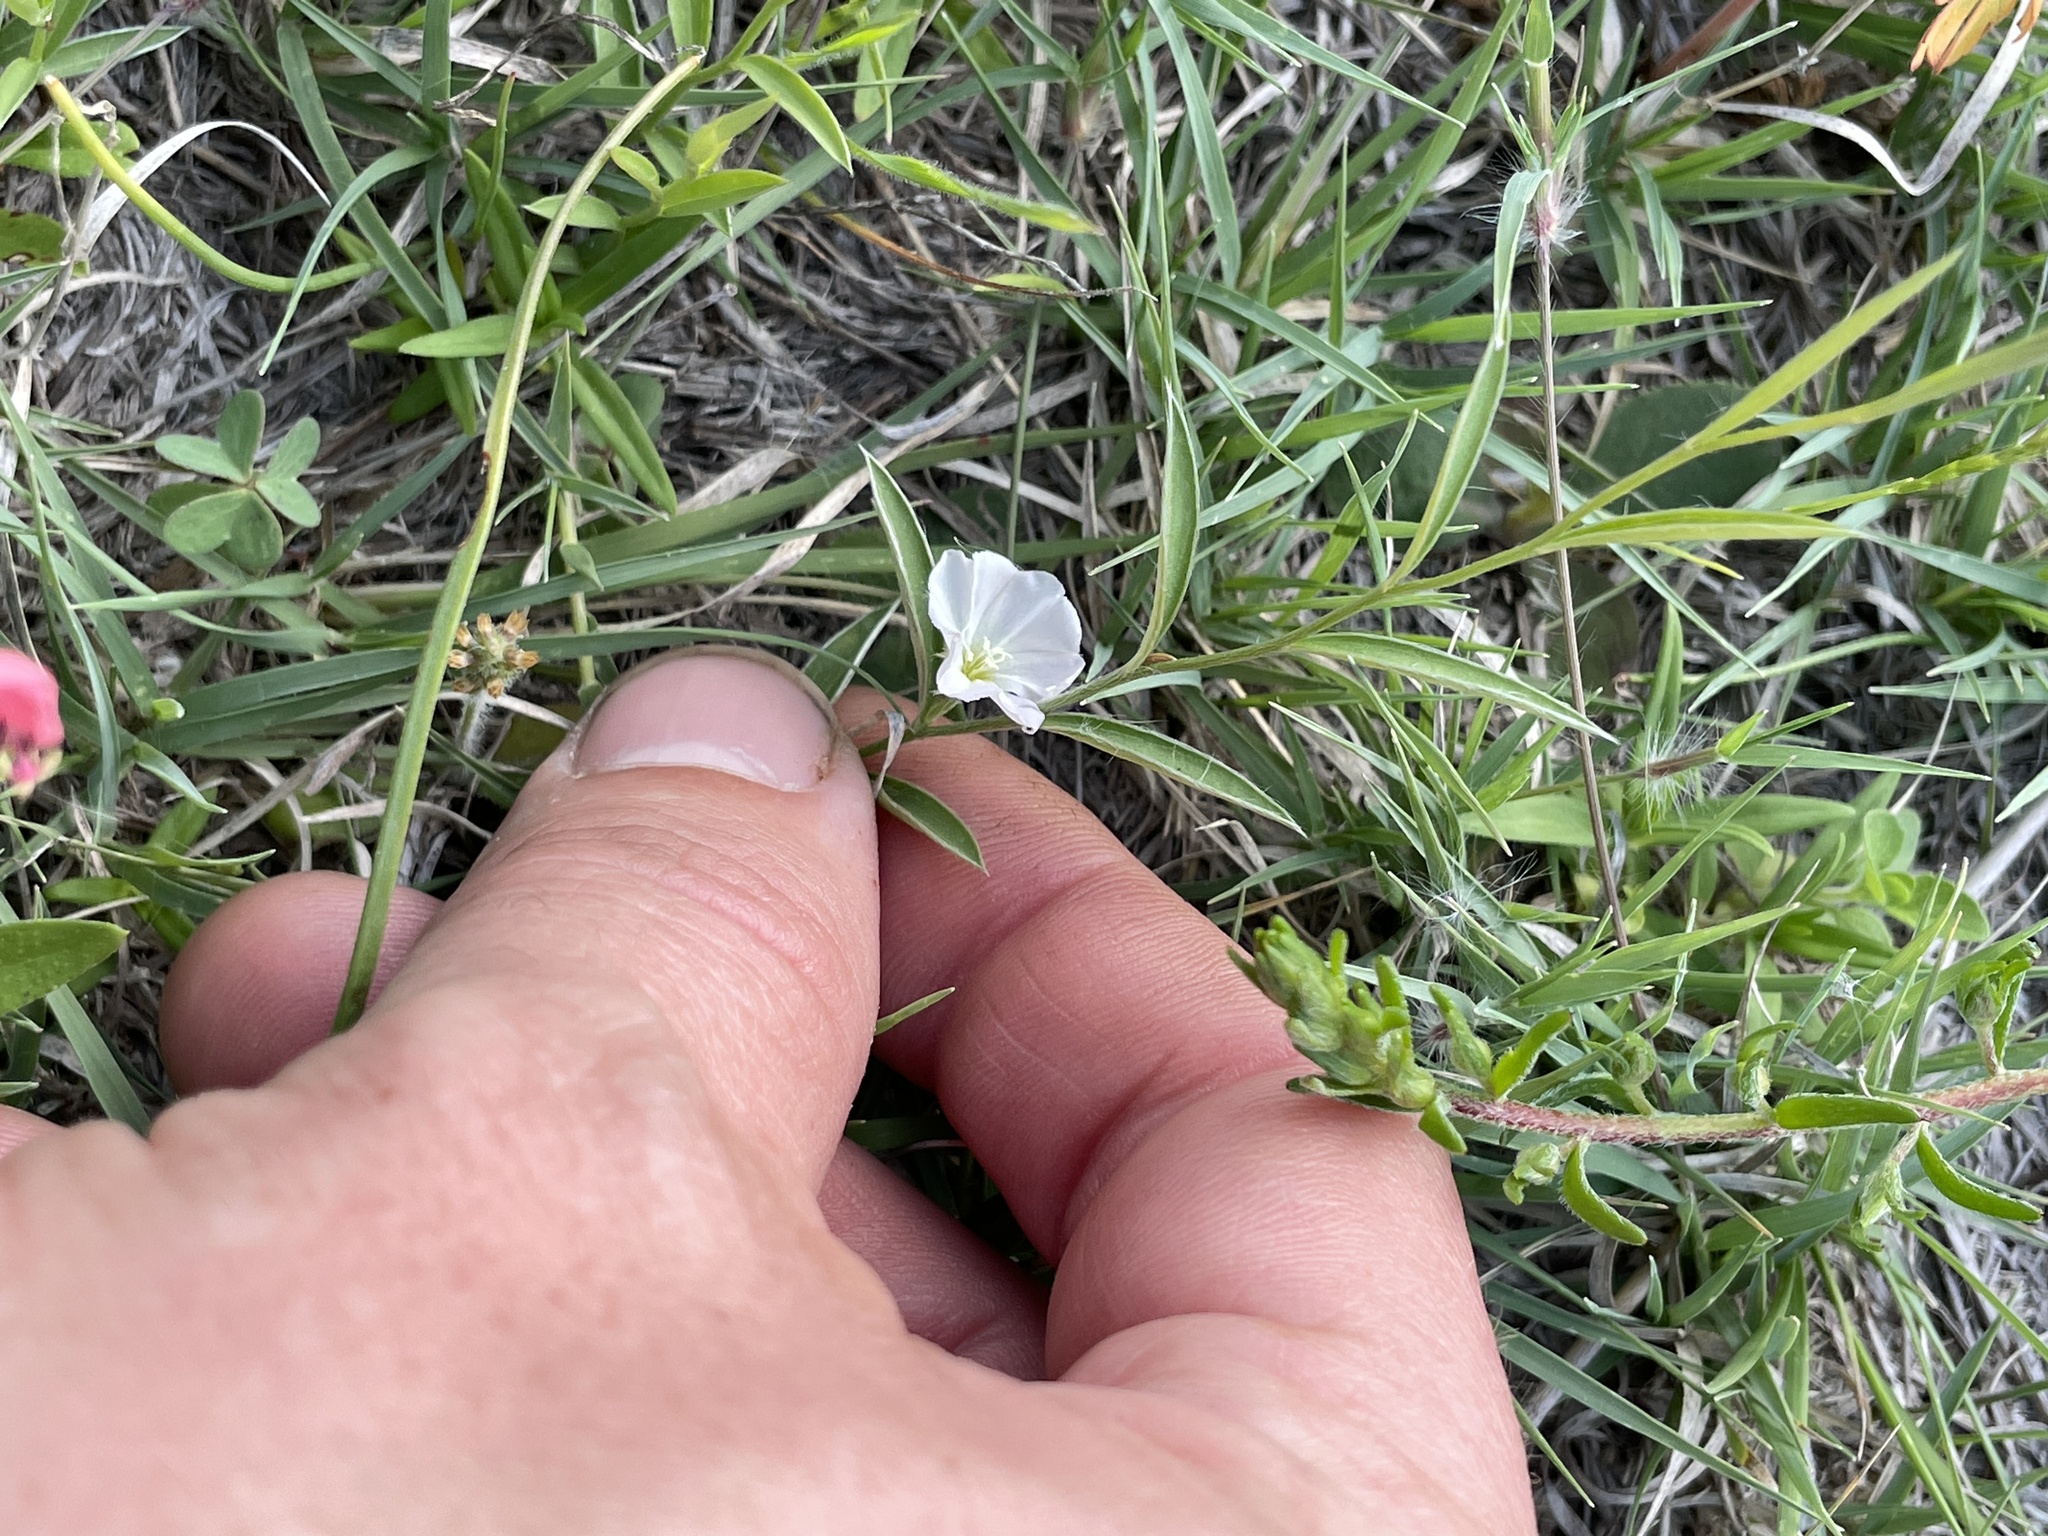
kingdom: Plantae
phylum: Tracheophyta
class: Magnoliopsida
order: Solanales
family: Convolvulaceae
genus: Evolvulus
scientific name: Evolvulus sericeus
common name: Blue dots
